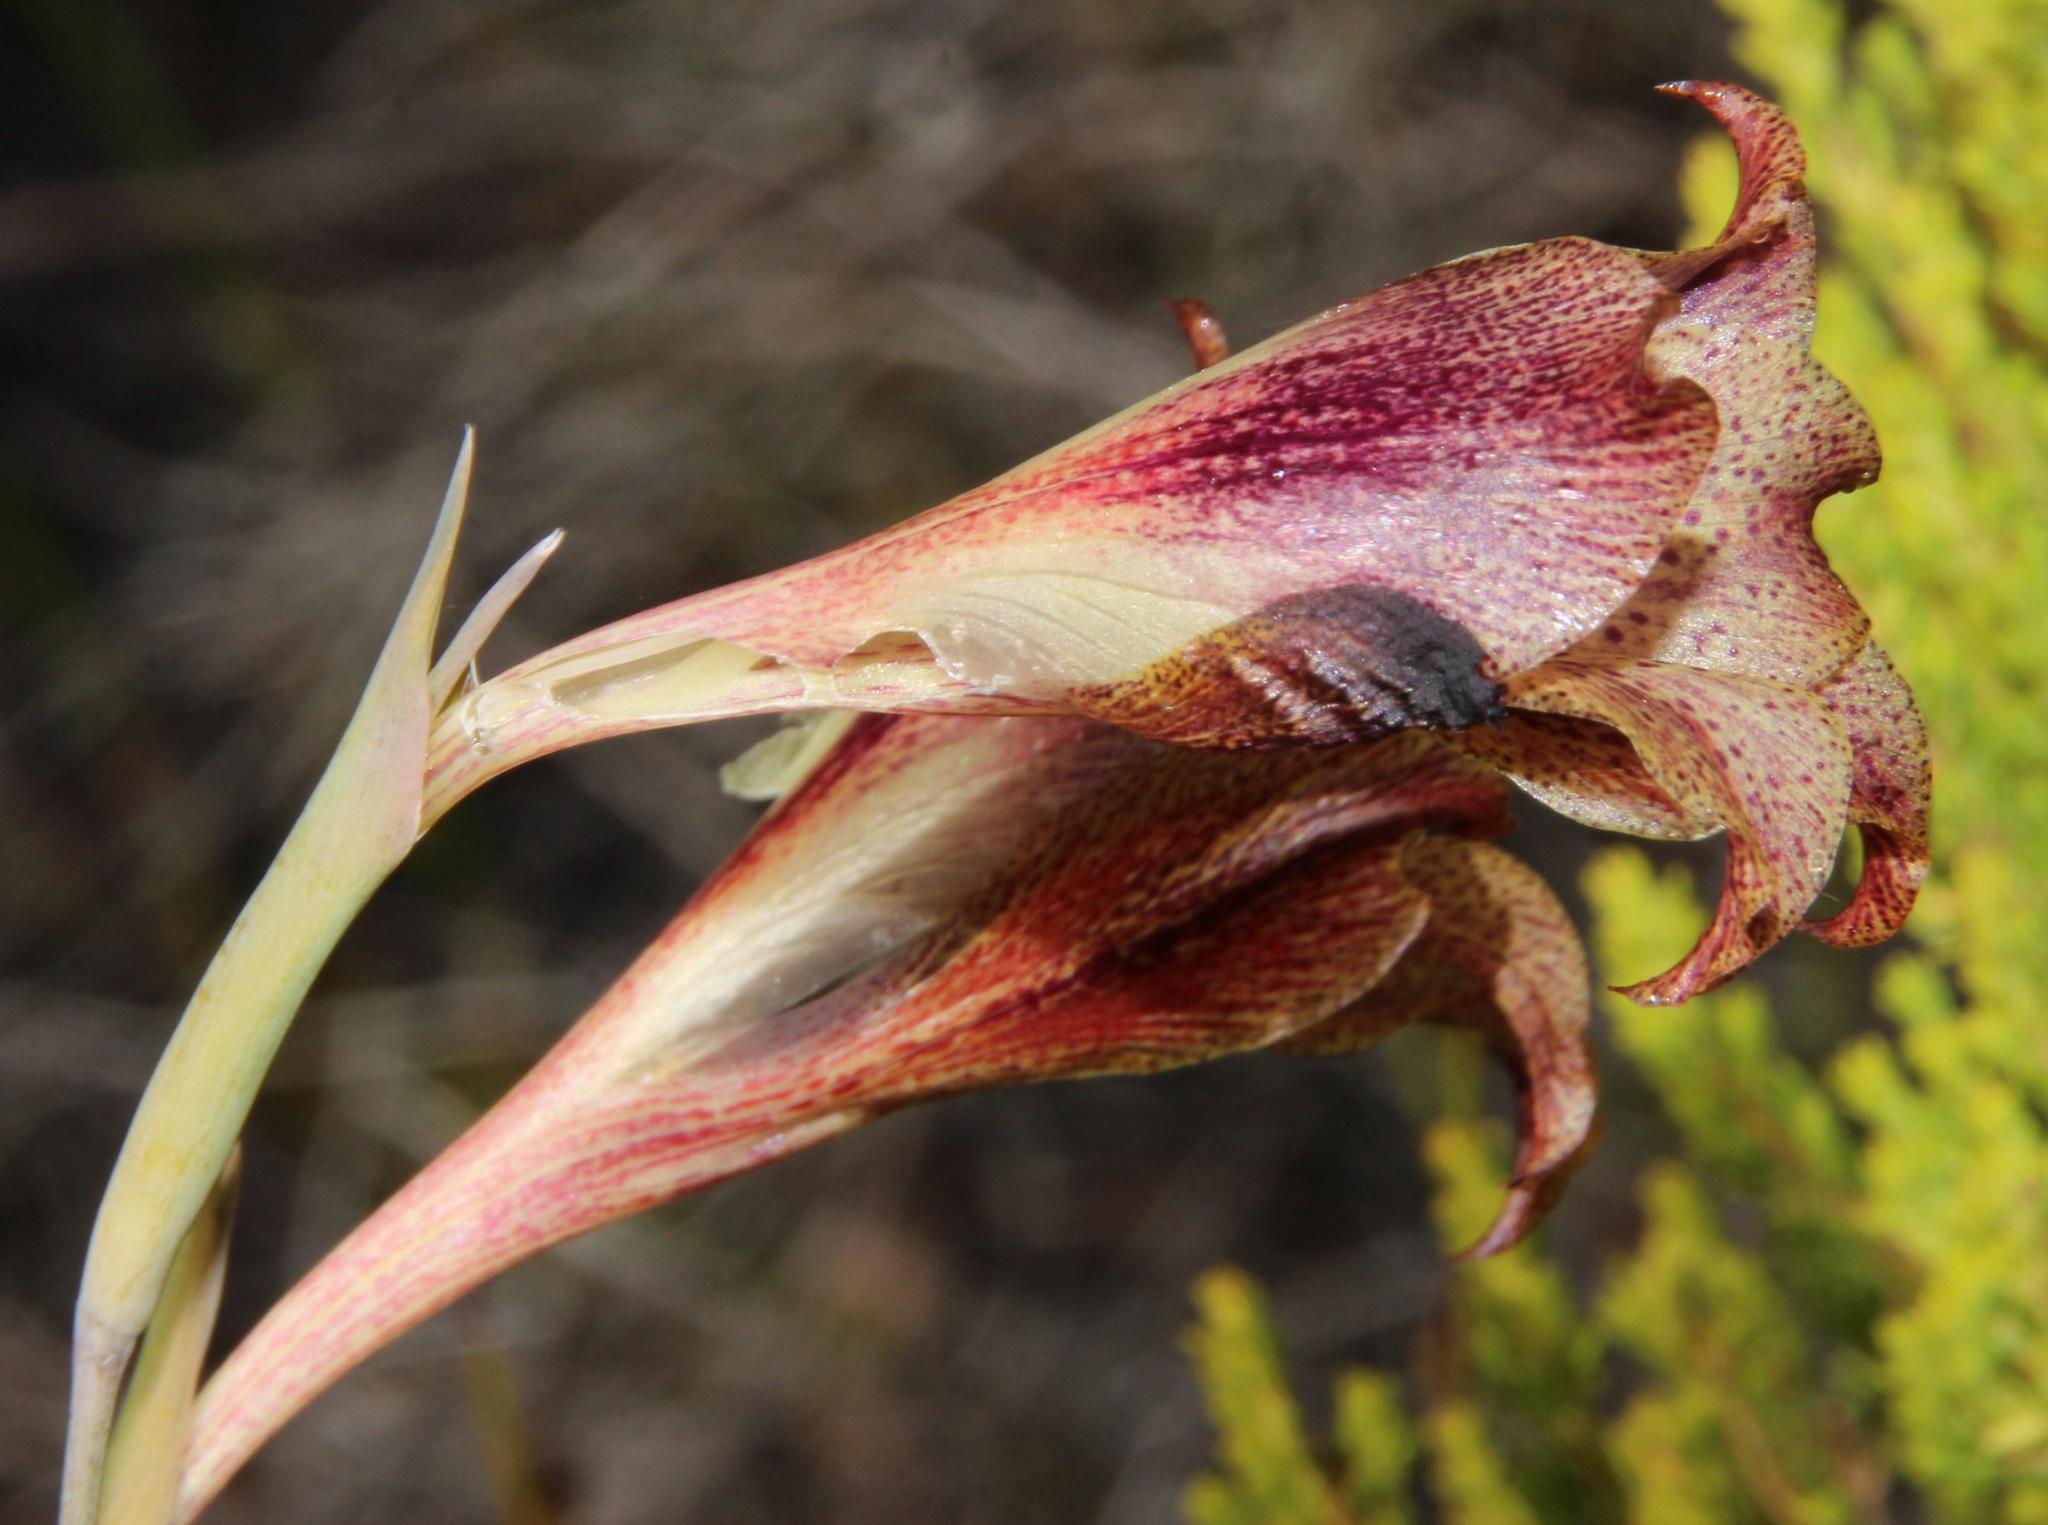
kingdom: Plantae
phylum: Tracheophyta
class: Liliopsida
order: Asparagales
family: Iridaceae
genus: Gladiolus
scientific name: Gladiolus maculatus
